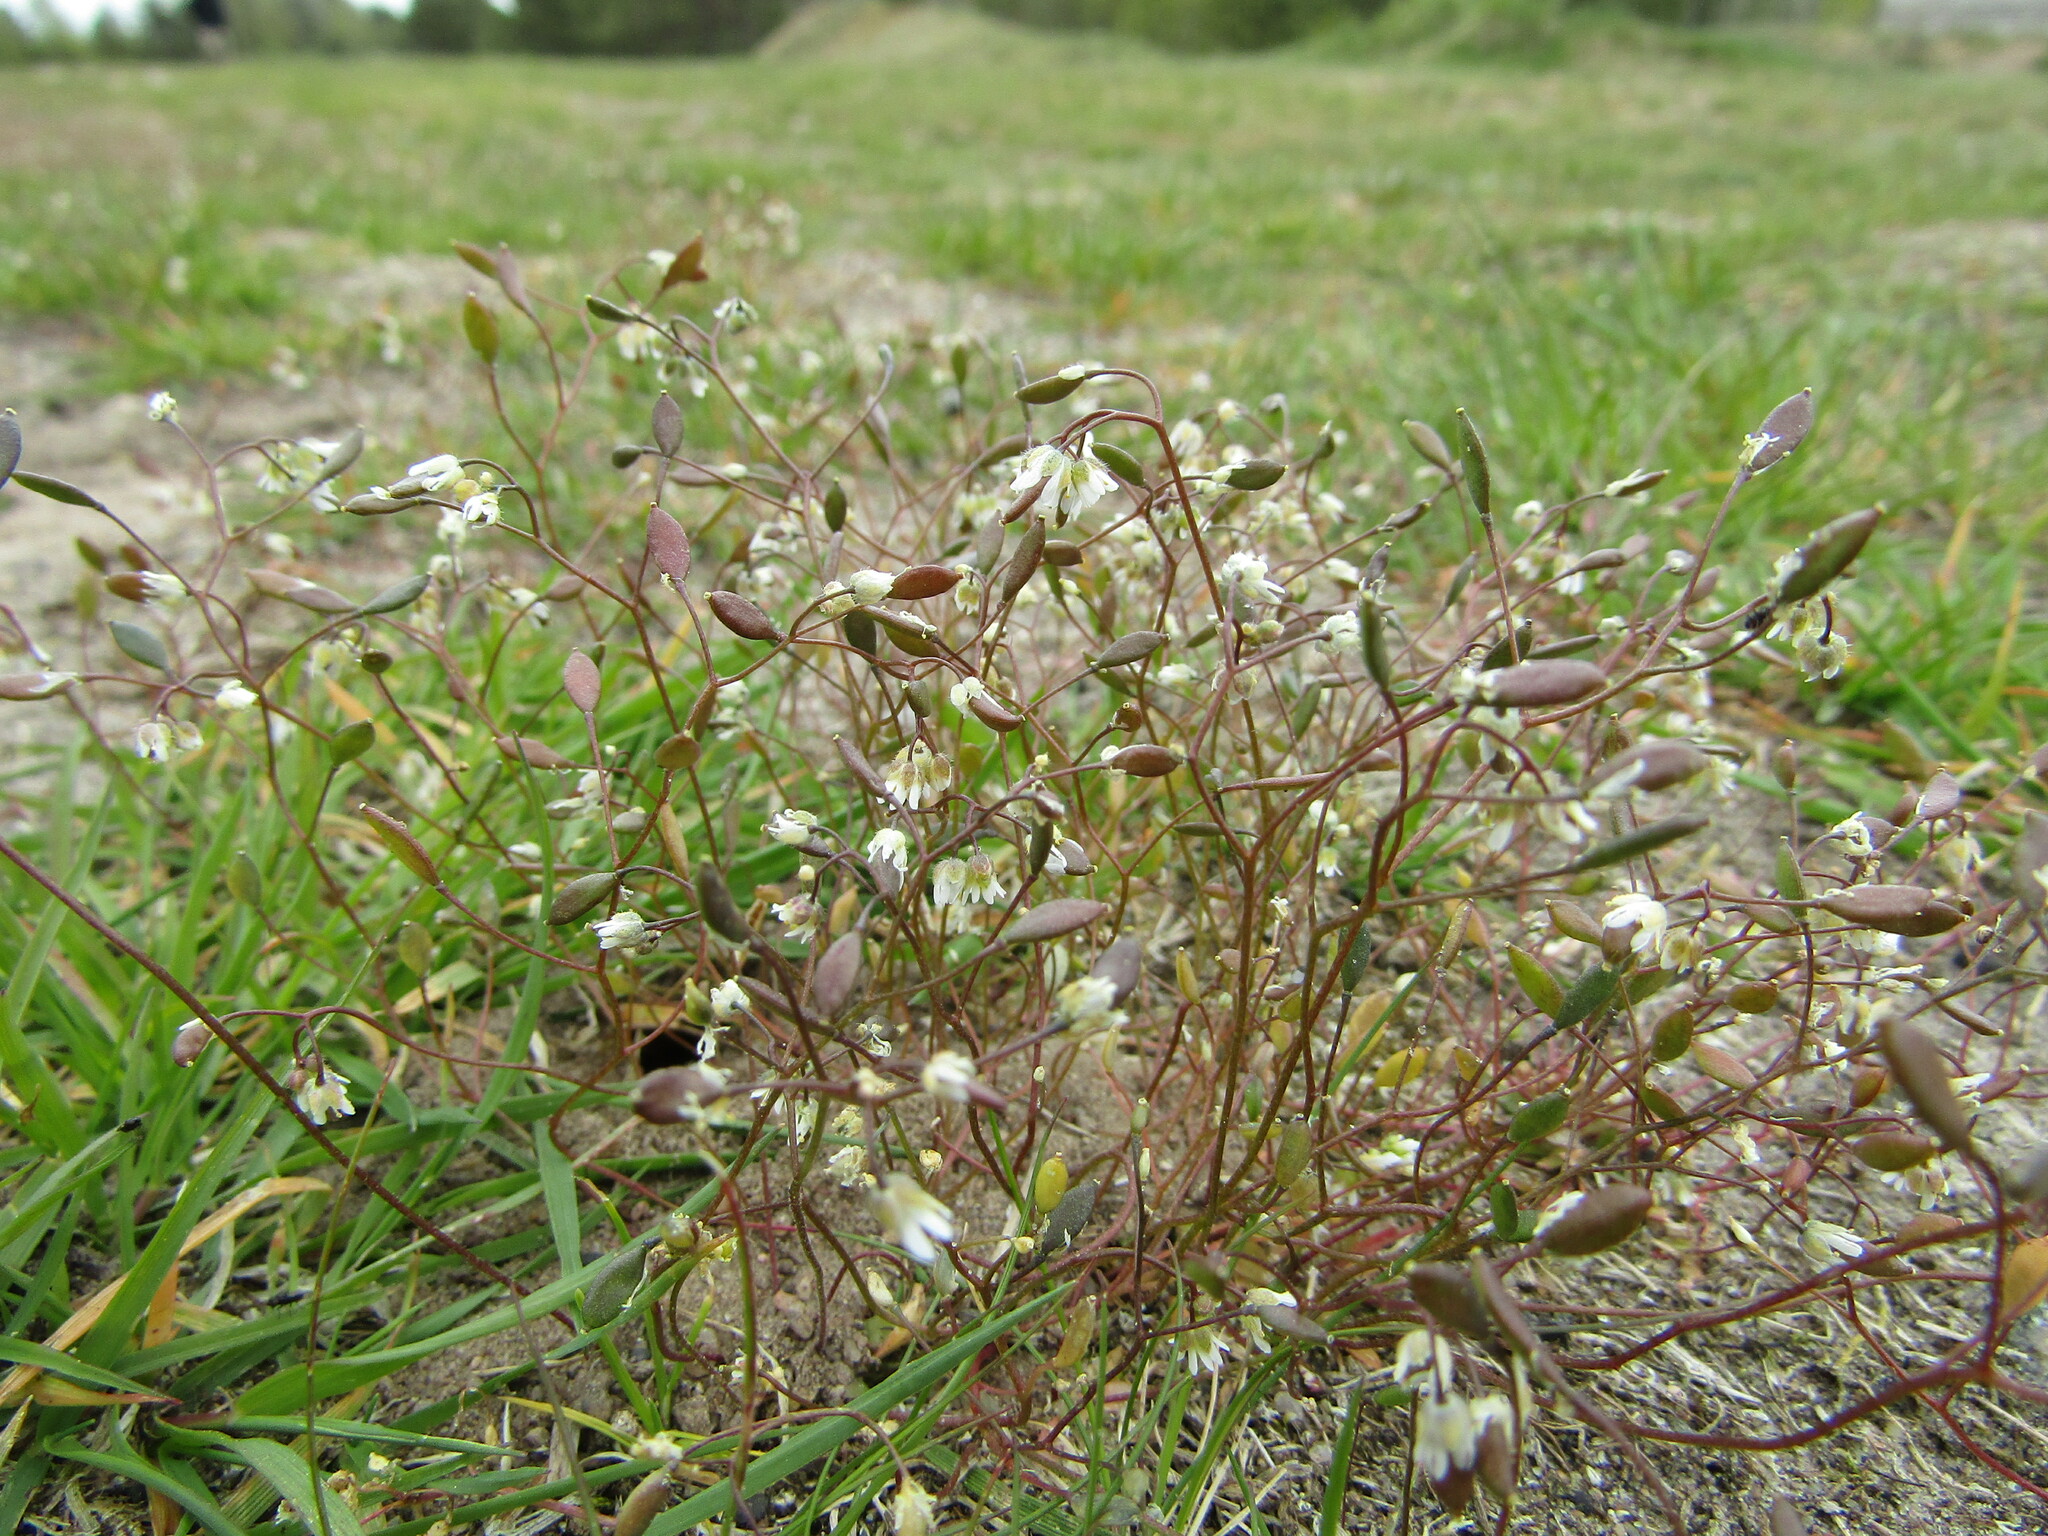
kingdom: Plantae
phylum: Tracheophyta
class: Magnoliopsida
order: Brassicales
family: Brassicaceae
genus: Draba
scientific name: Draba verna
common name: Spring draba
